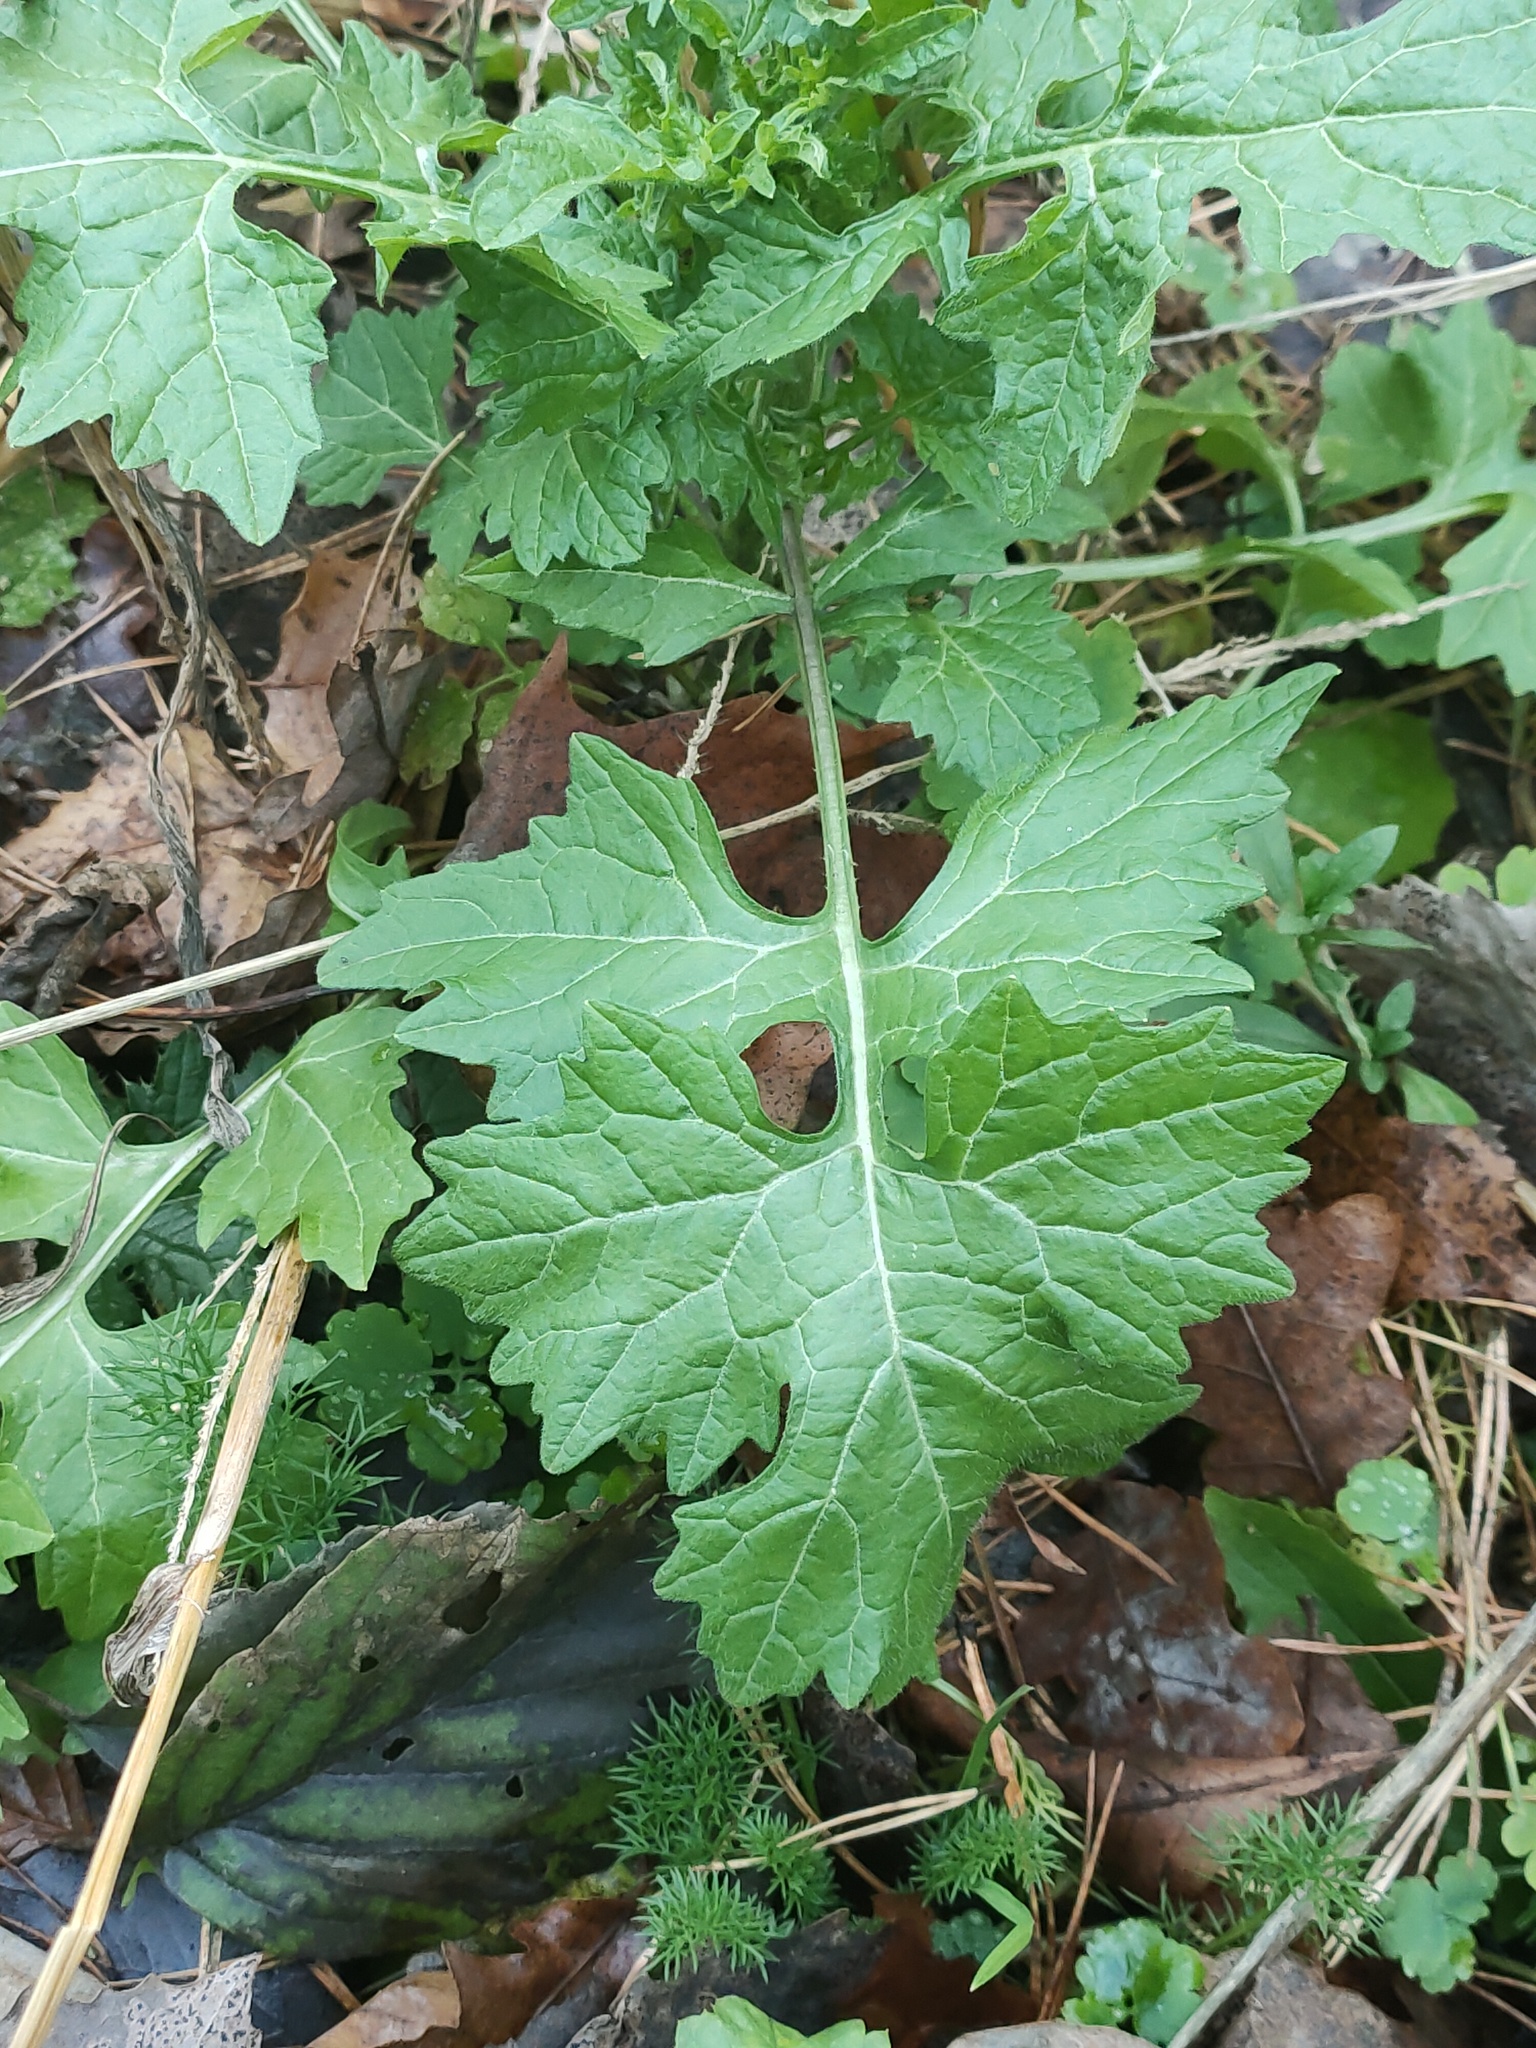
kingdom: Plantae
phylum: Tracheophyta
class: Magnoliopsida
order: Brassicales
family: Brassicaceae
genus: Sisymbrium
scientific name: Sisymbrium officinale
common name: Hedge mustard
